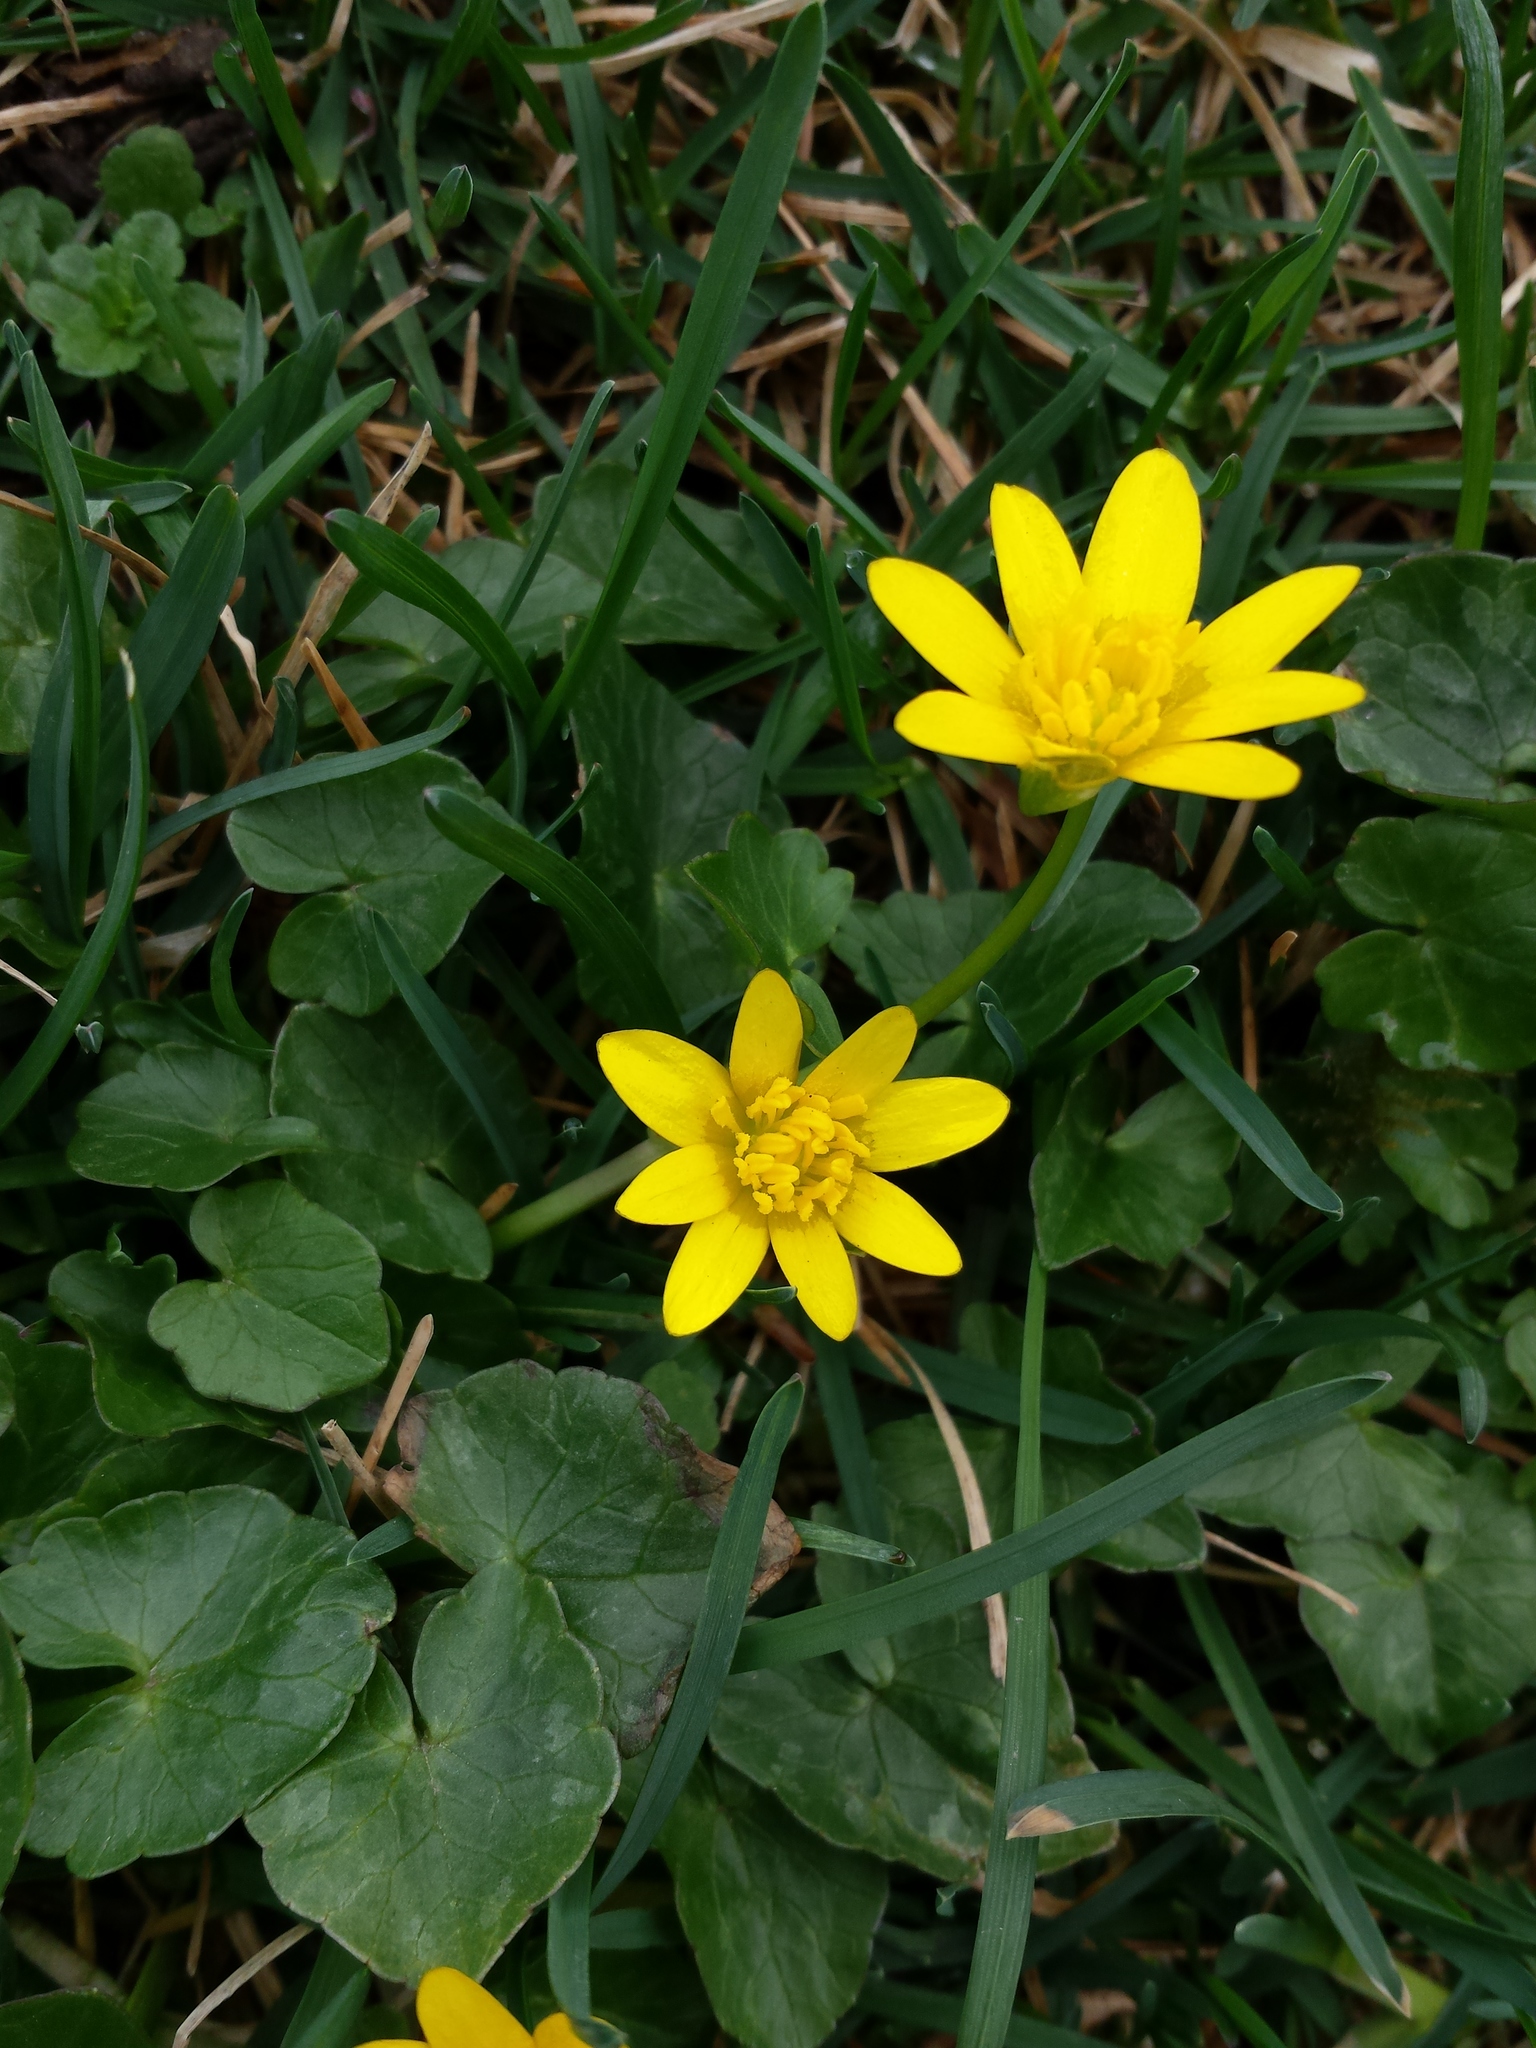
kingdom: Plantae
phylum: Tracheophyta
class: Magnoliopsida
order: Ranunculales
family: Ranunculaceae
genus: Ficaria
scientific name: Ficaria verna
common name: Lesser celandine
